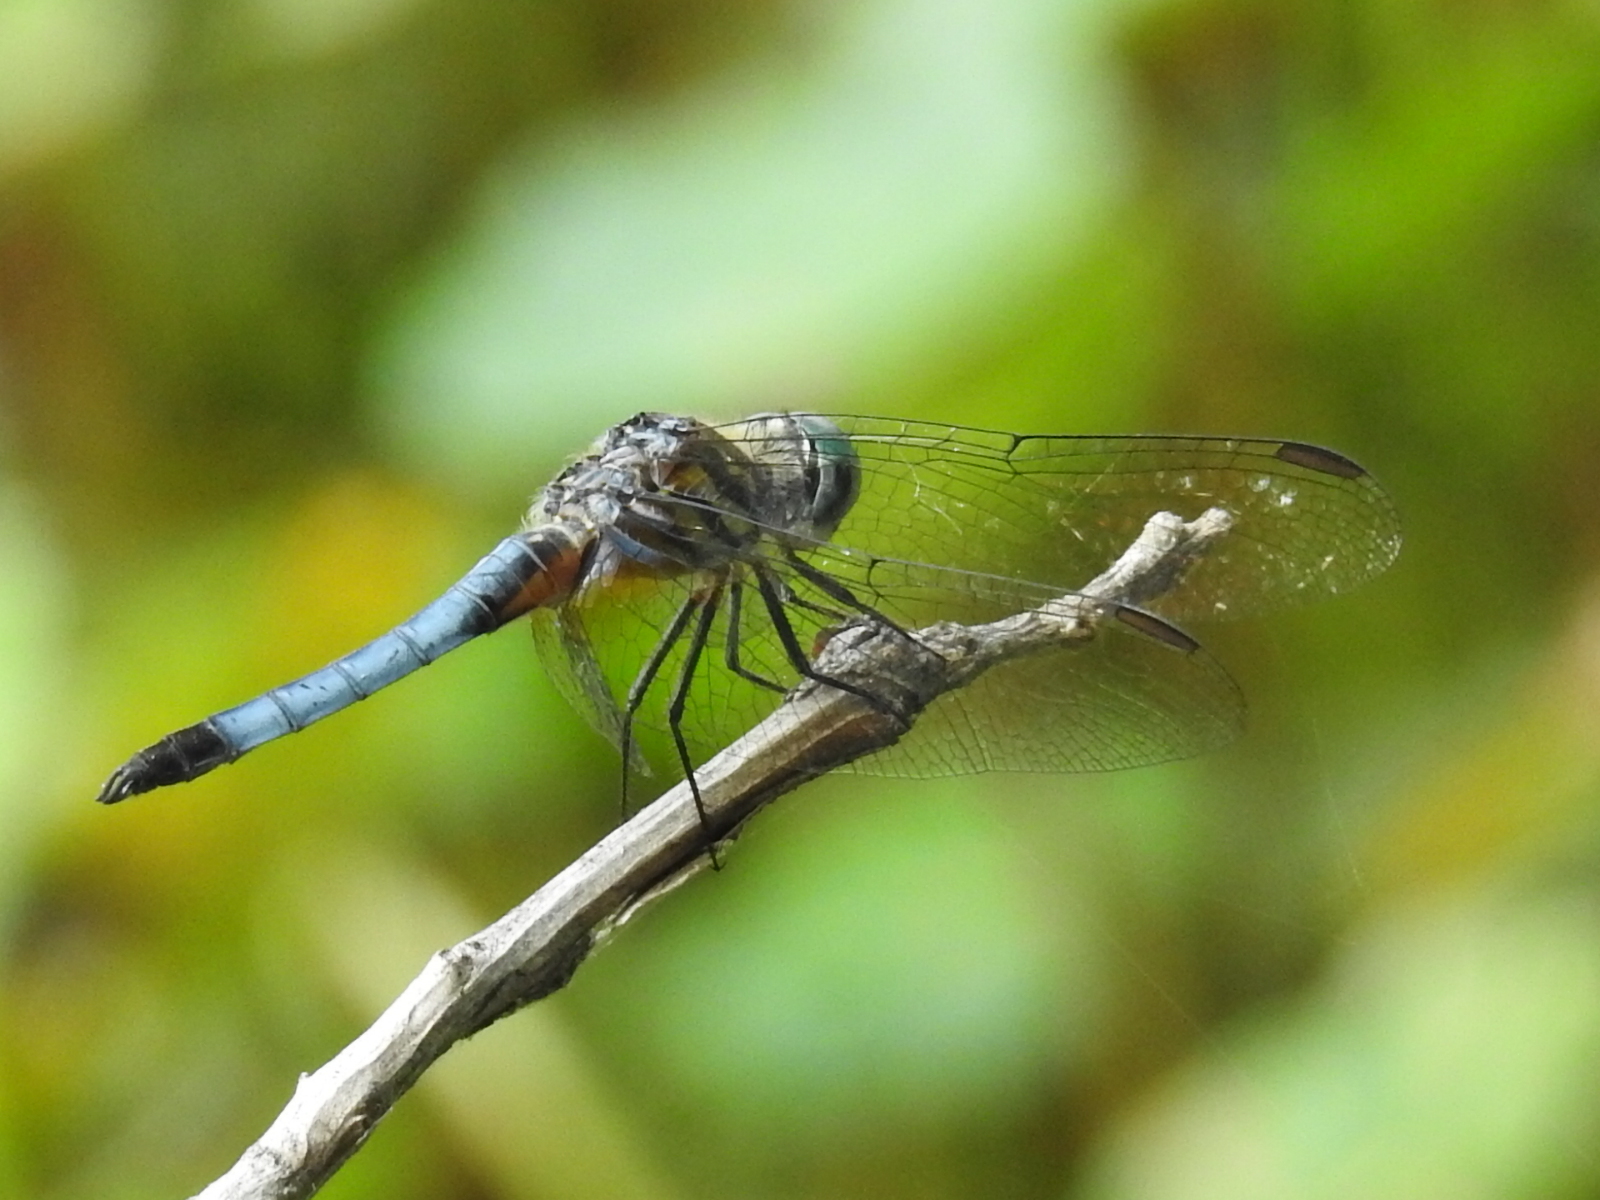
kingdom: Animalia
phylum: Arthropoda
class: Insecta
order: Odonata
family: Libellulidae
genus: Pachydiplax
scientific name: Pachydiplax longipennis
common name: Blue dasher
